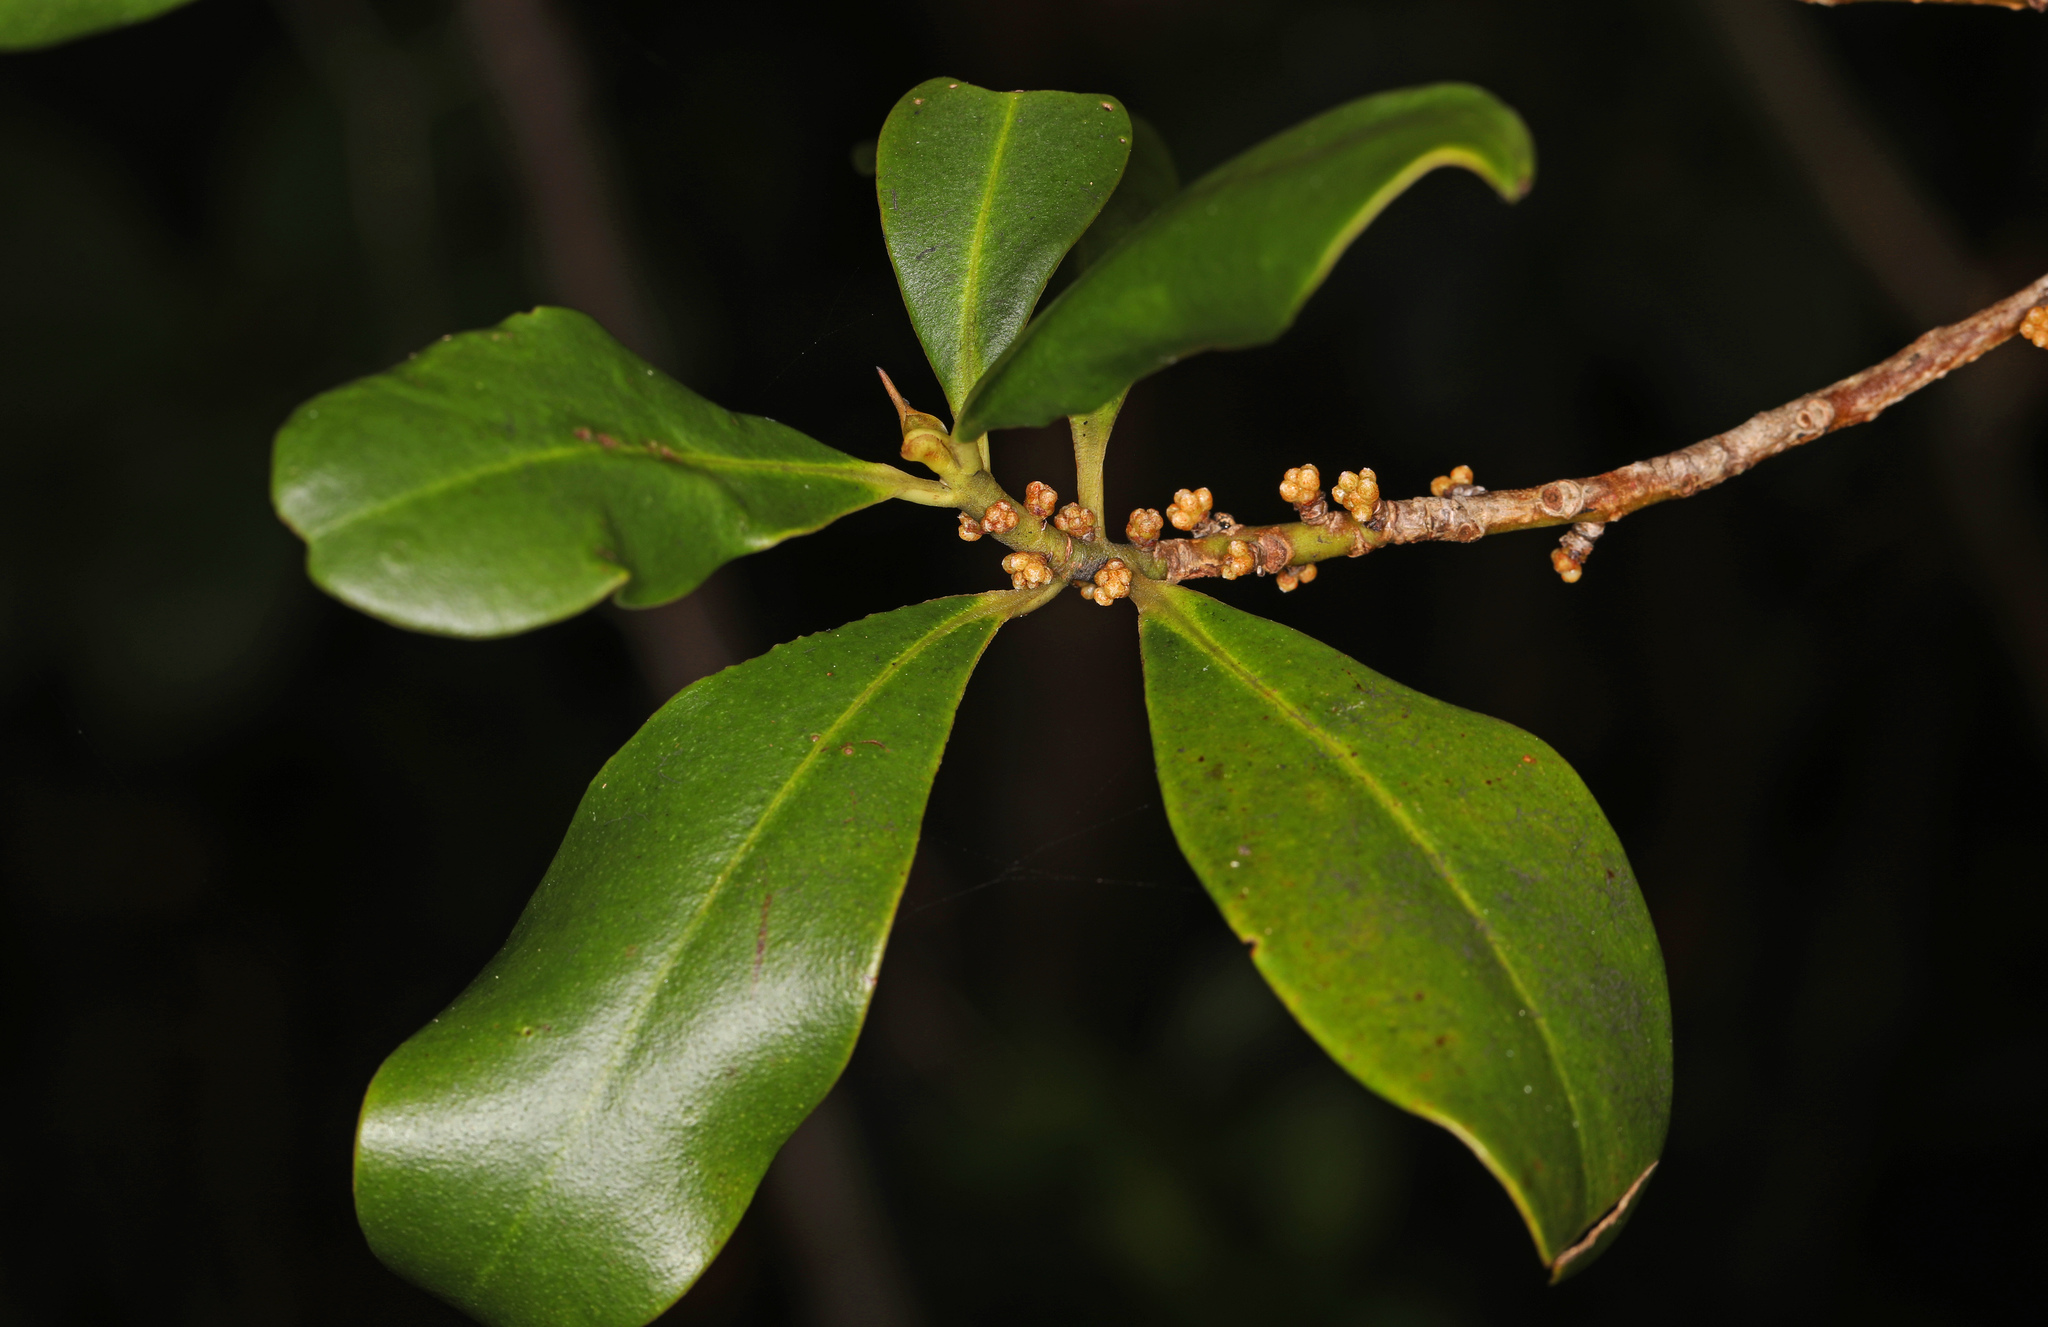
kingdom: Plantae
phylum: Tracheophyta
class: Magnoliopsida
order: Ericales
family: Primulaceae
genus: Myrsine
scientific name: Myrsine floridana
